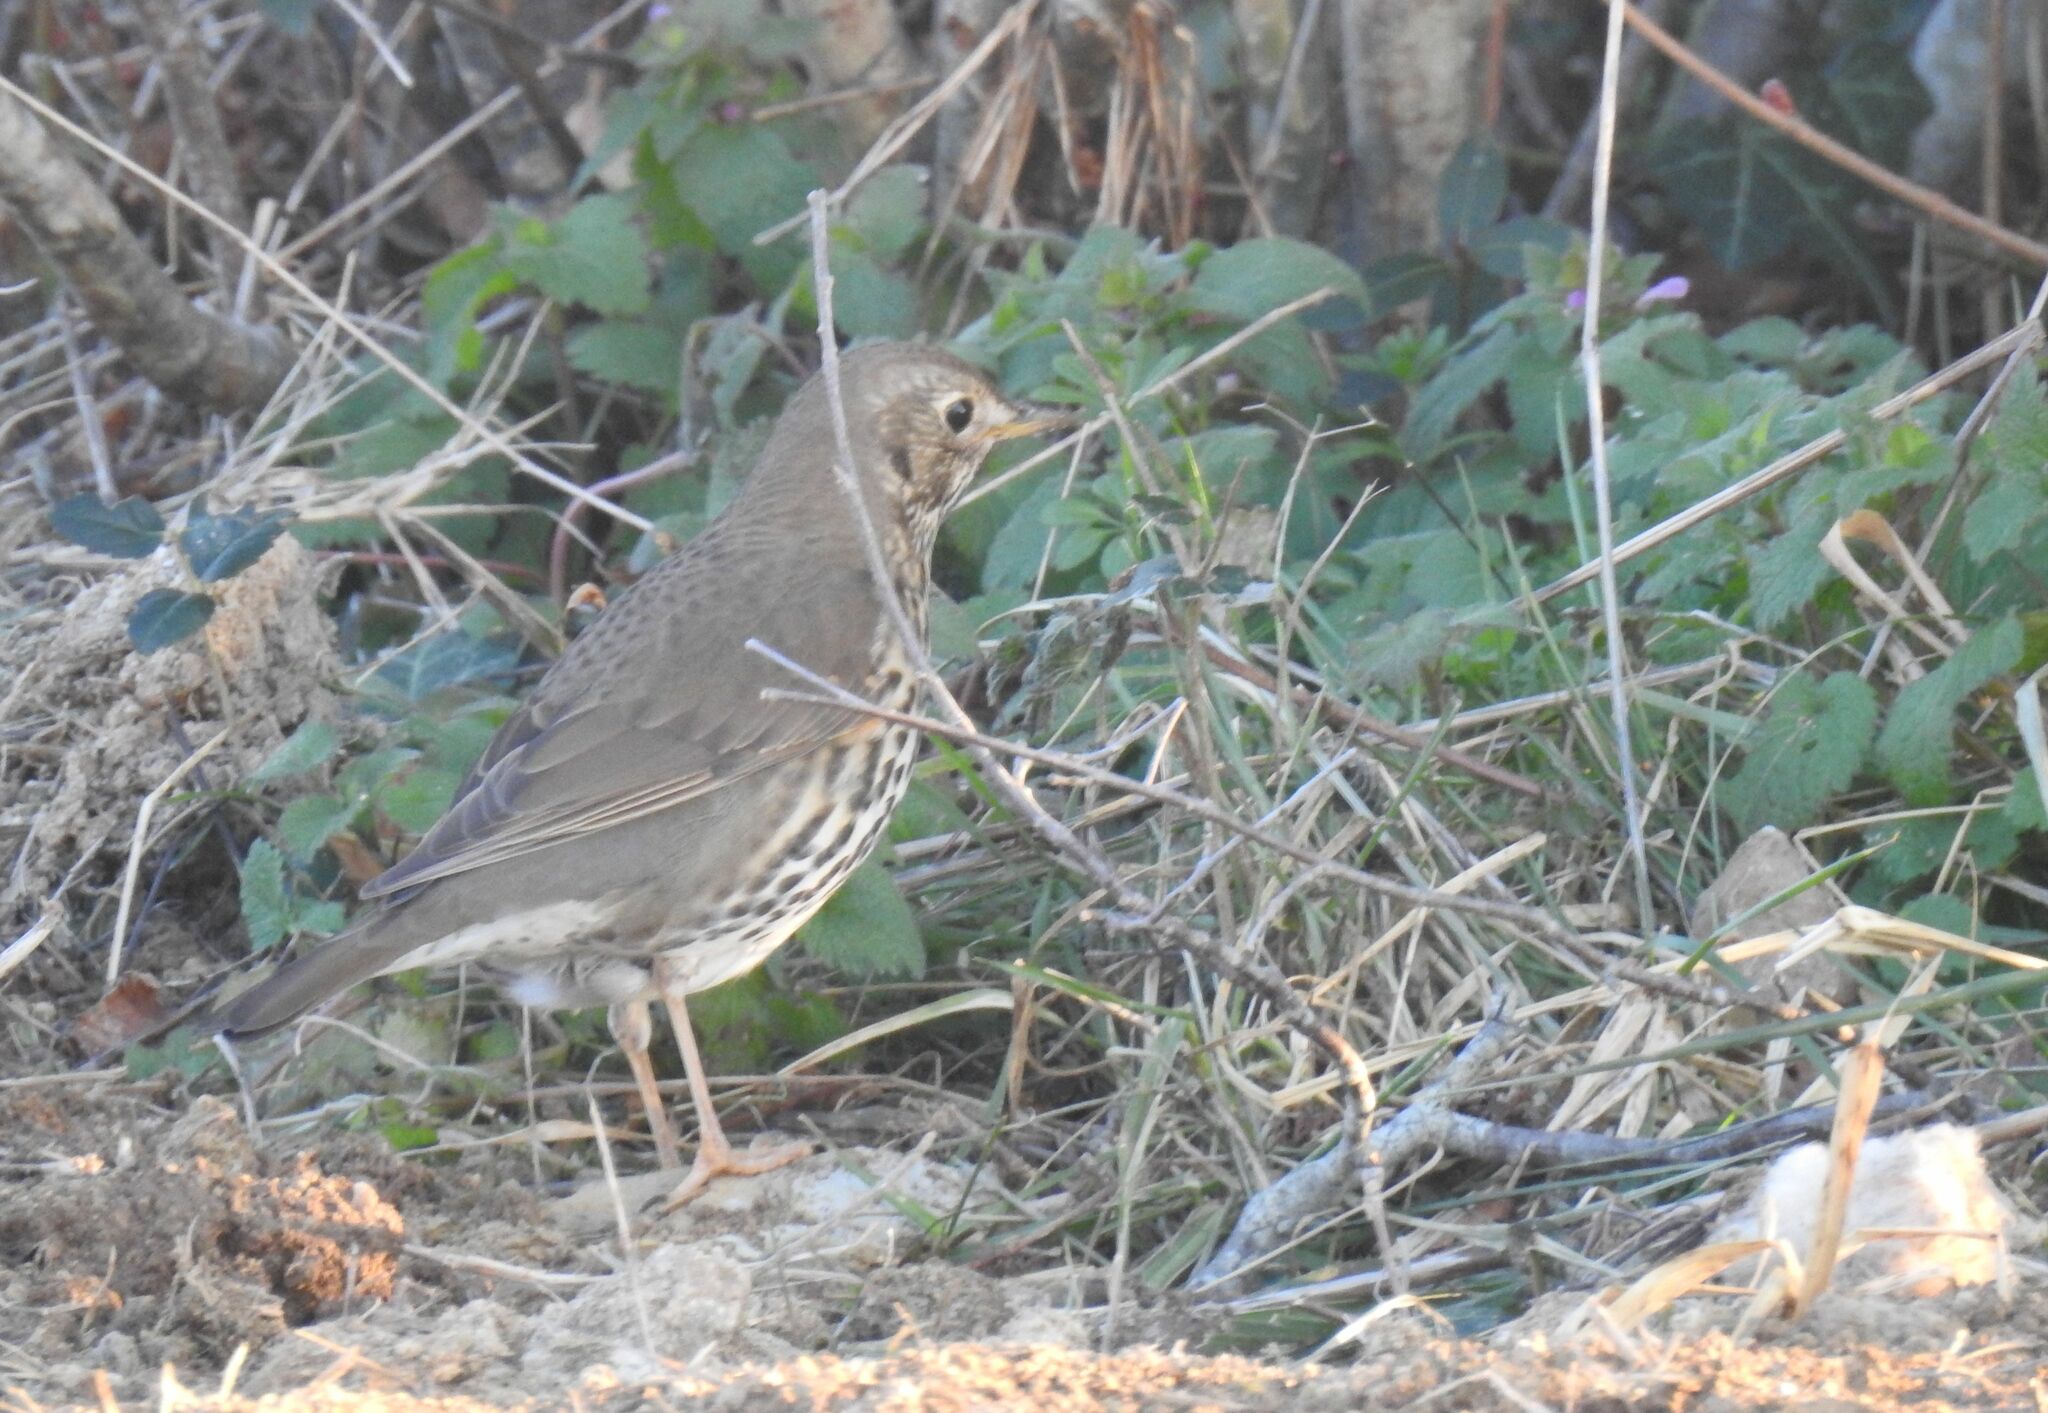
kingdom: Animalia
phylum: Chordata
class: Aves
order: Passeriformes
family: Turdidae
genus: Turdus
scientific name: Turdus philomelos
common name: Song thrush
